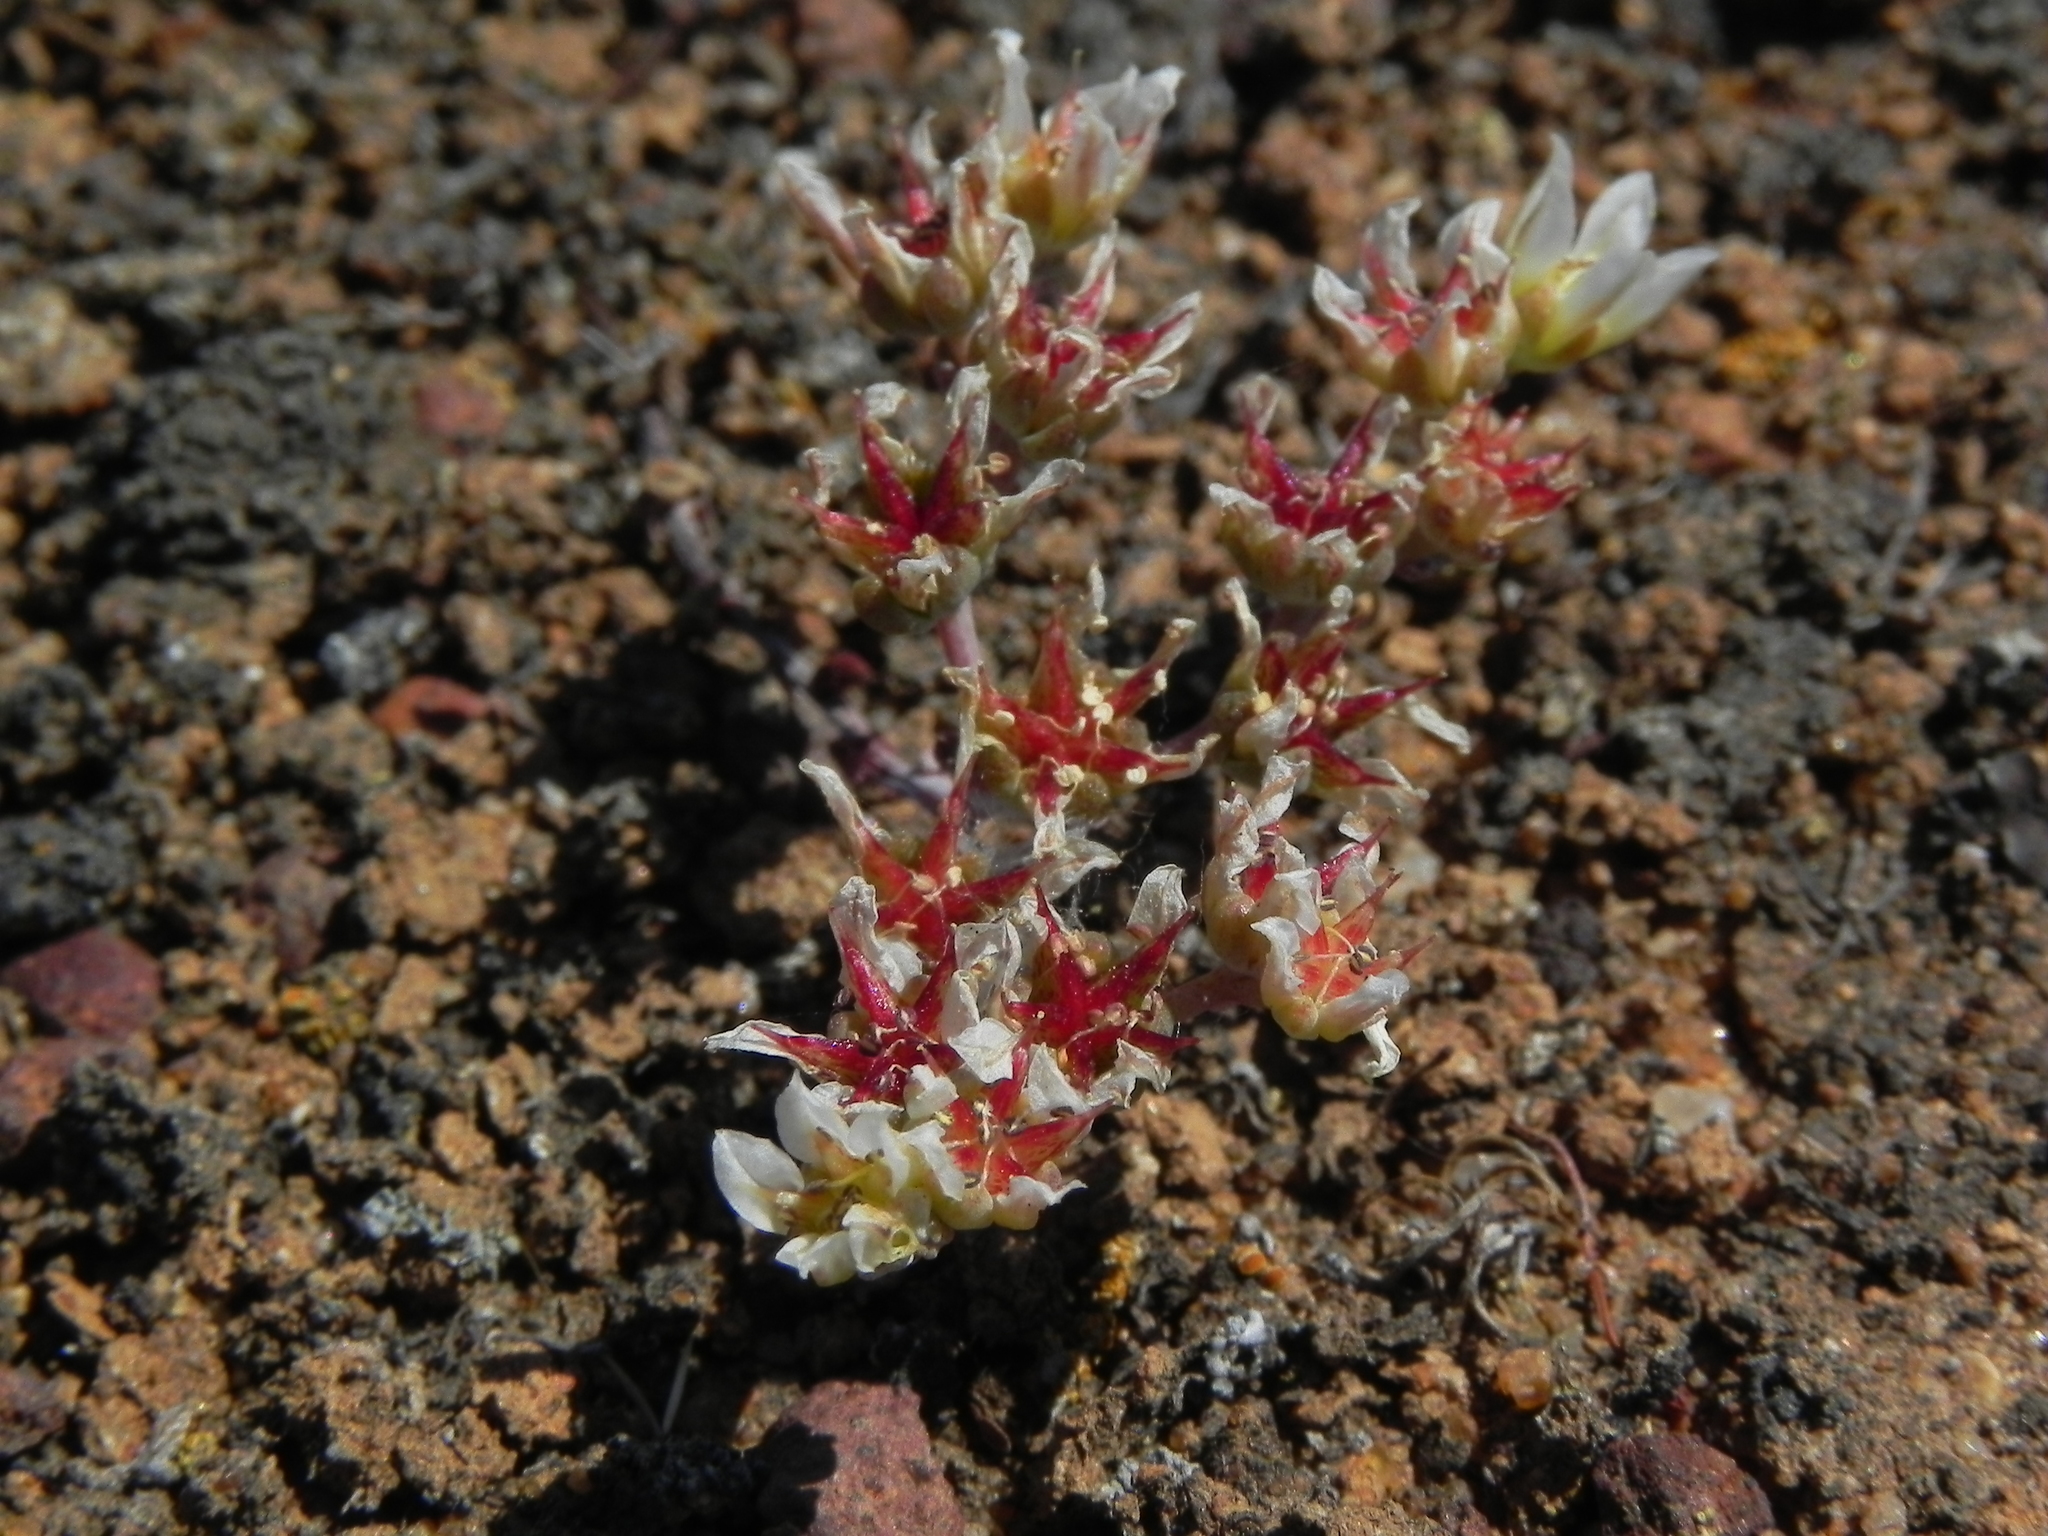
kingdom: Plantae
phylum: Tracheophyta
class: Magnoliopsida
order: Saxifragales
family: Crassulaceae
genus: Dudleya
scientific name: Dudleya blochmaniae
